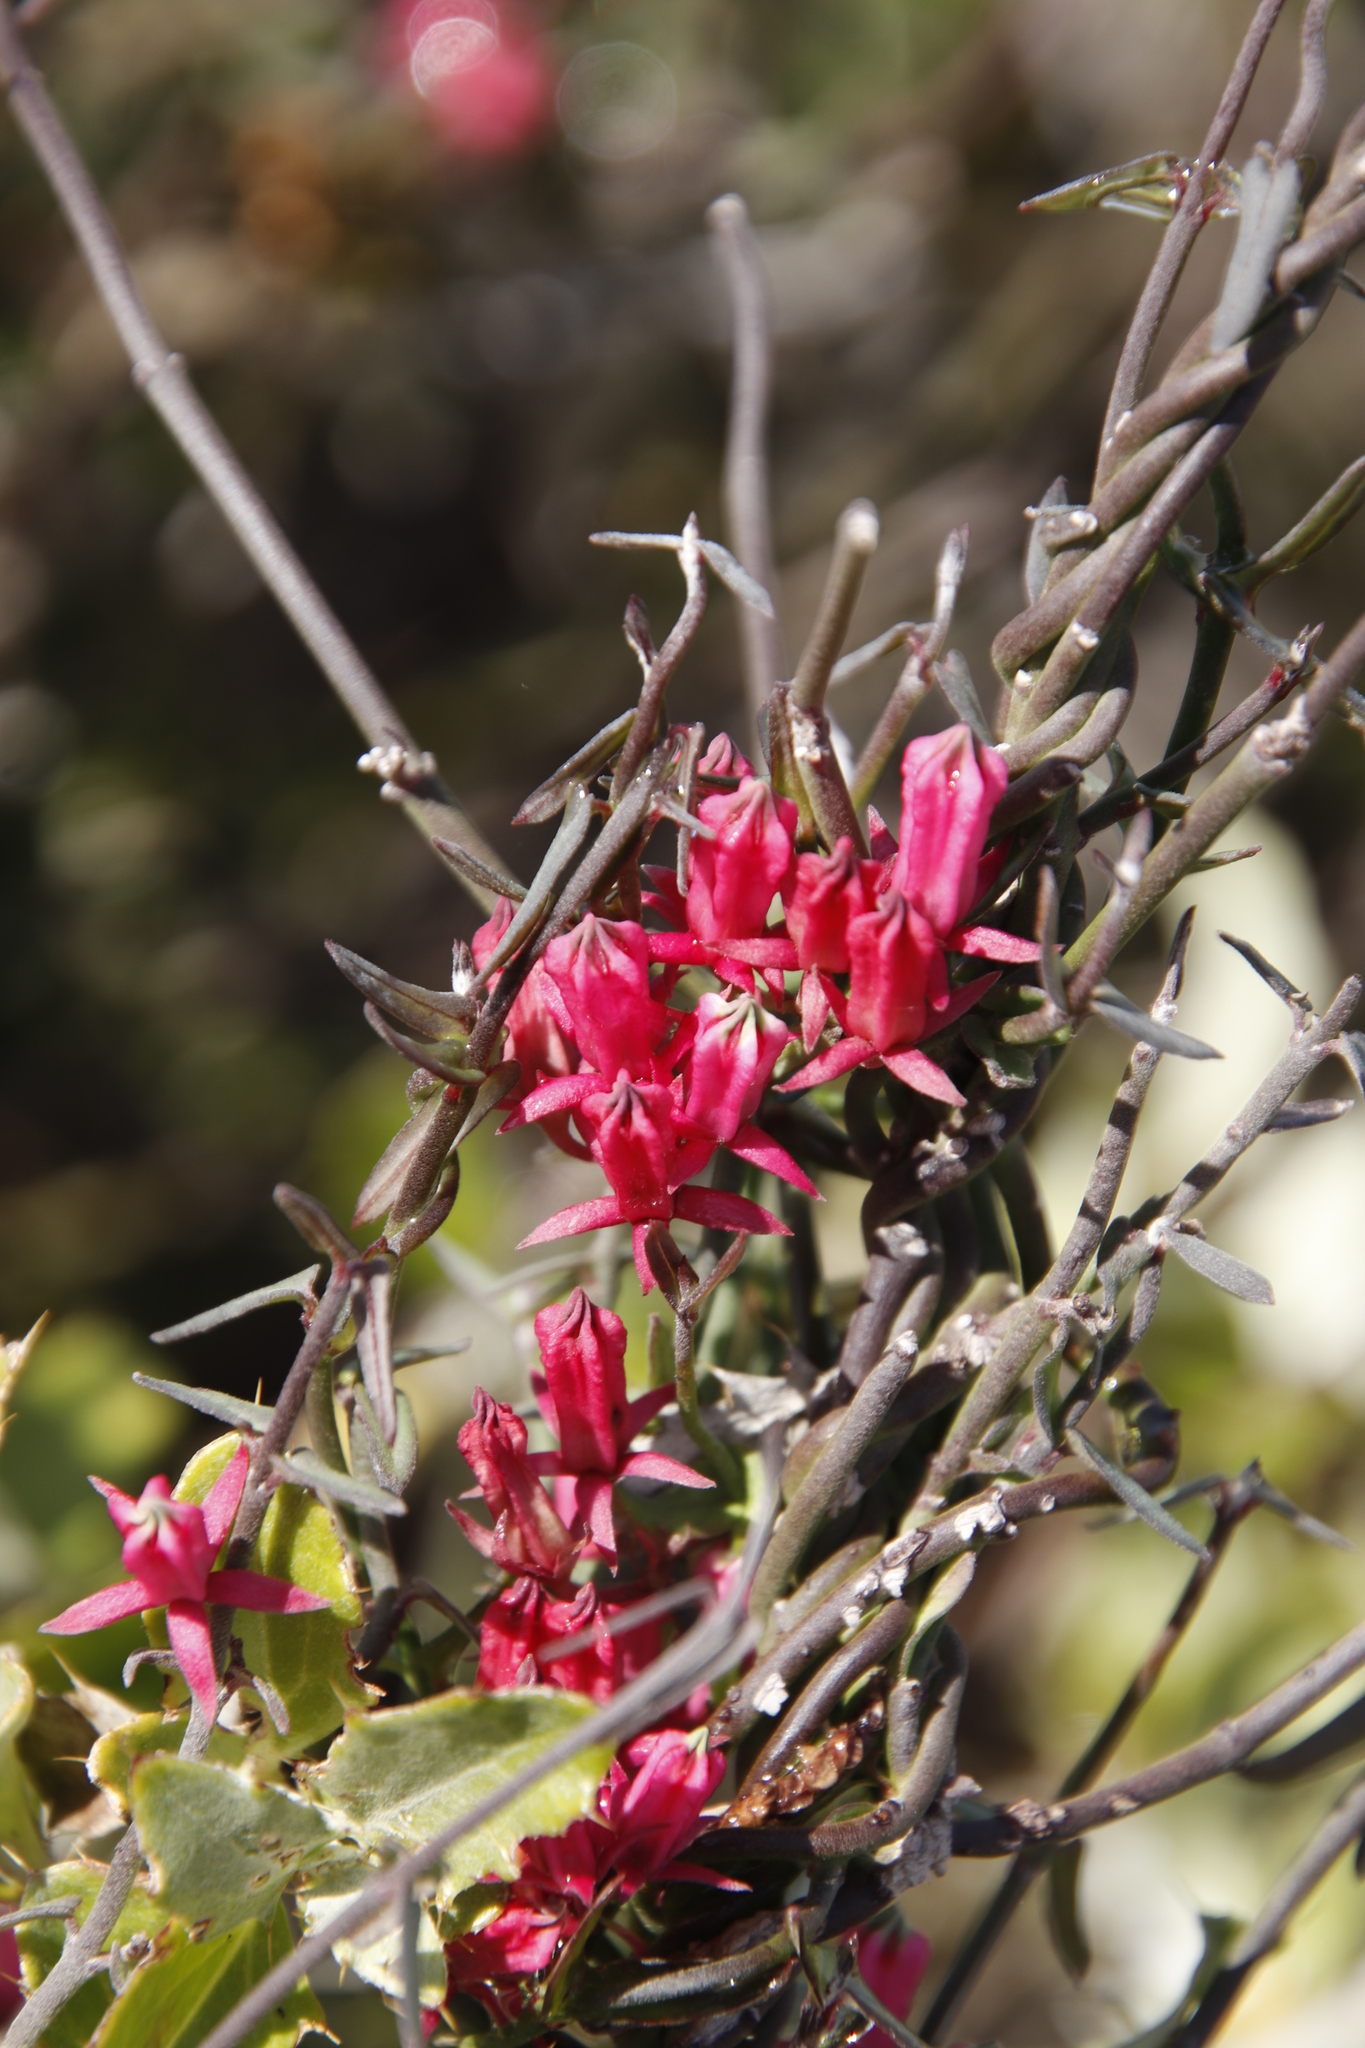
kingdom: Plantae
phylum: Tracheophyta
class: Magnoliopsida
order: Gentianales
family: Apocynaceae
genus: Microloma
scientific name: Microloma sagittatum
